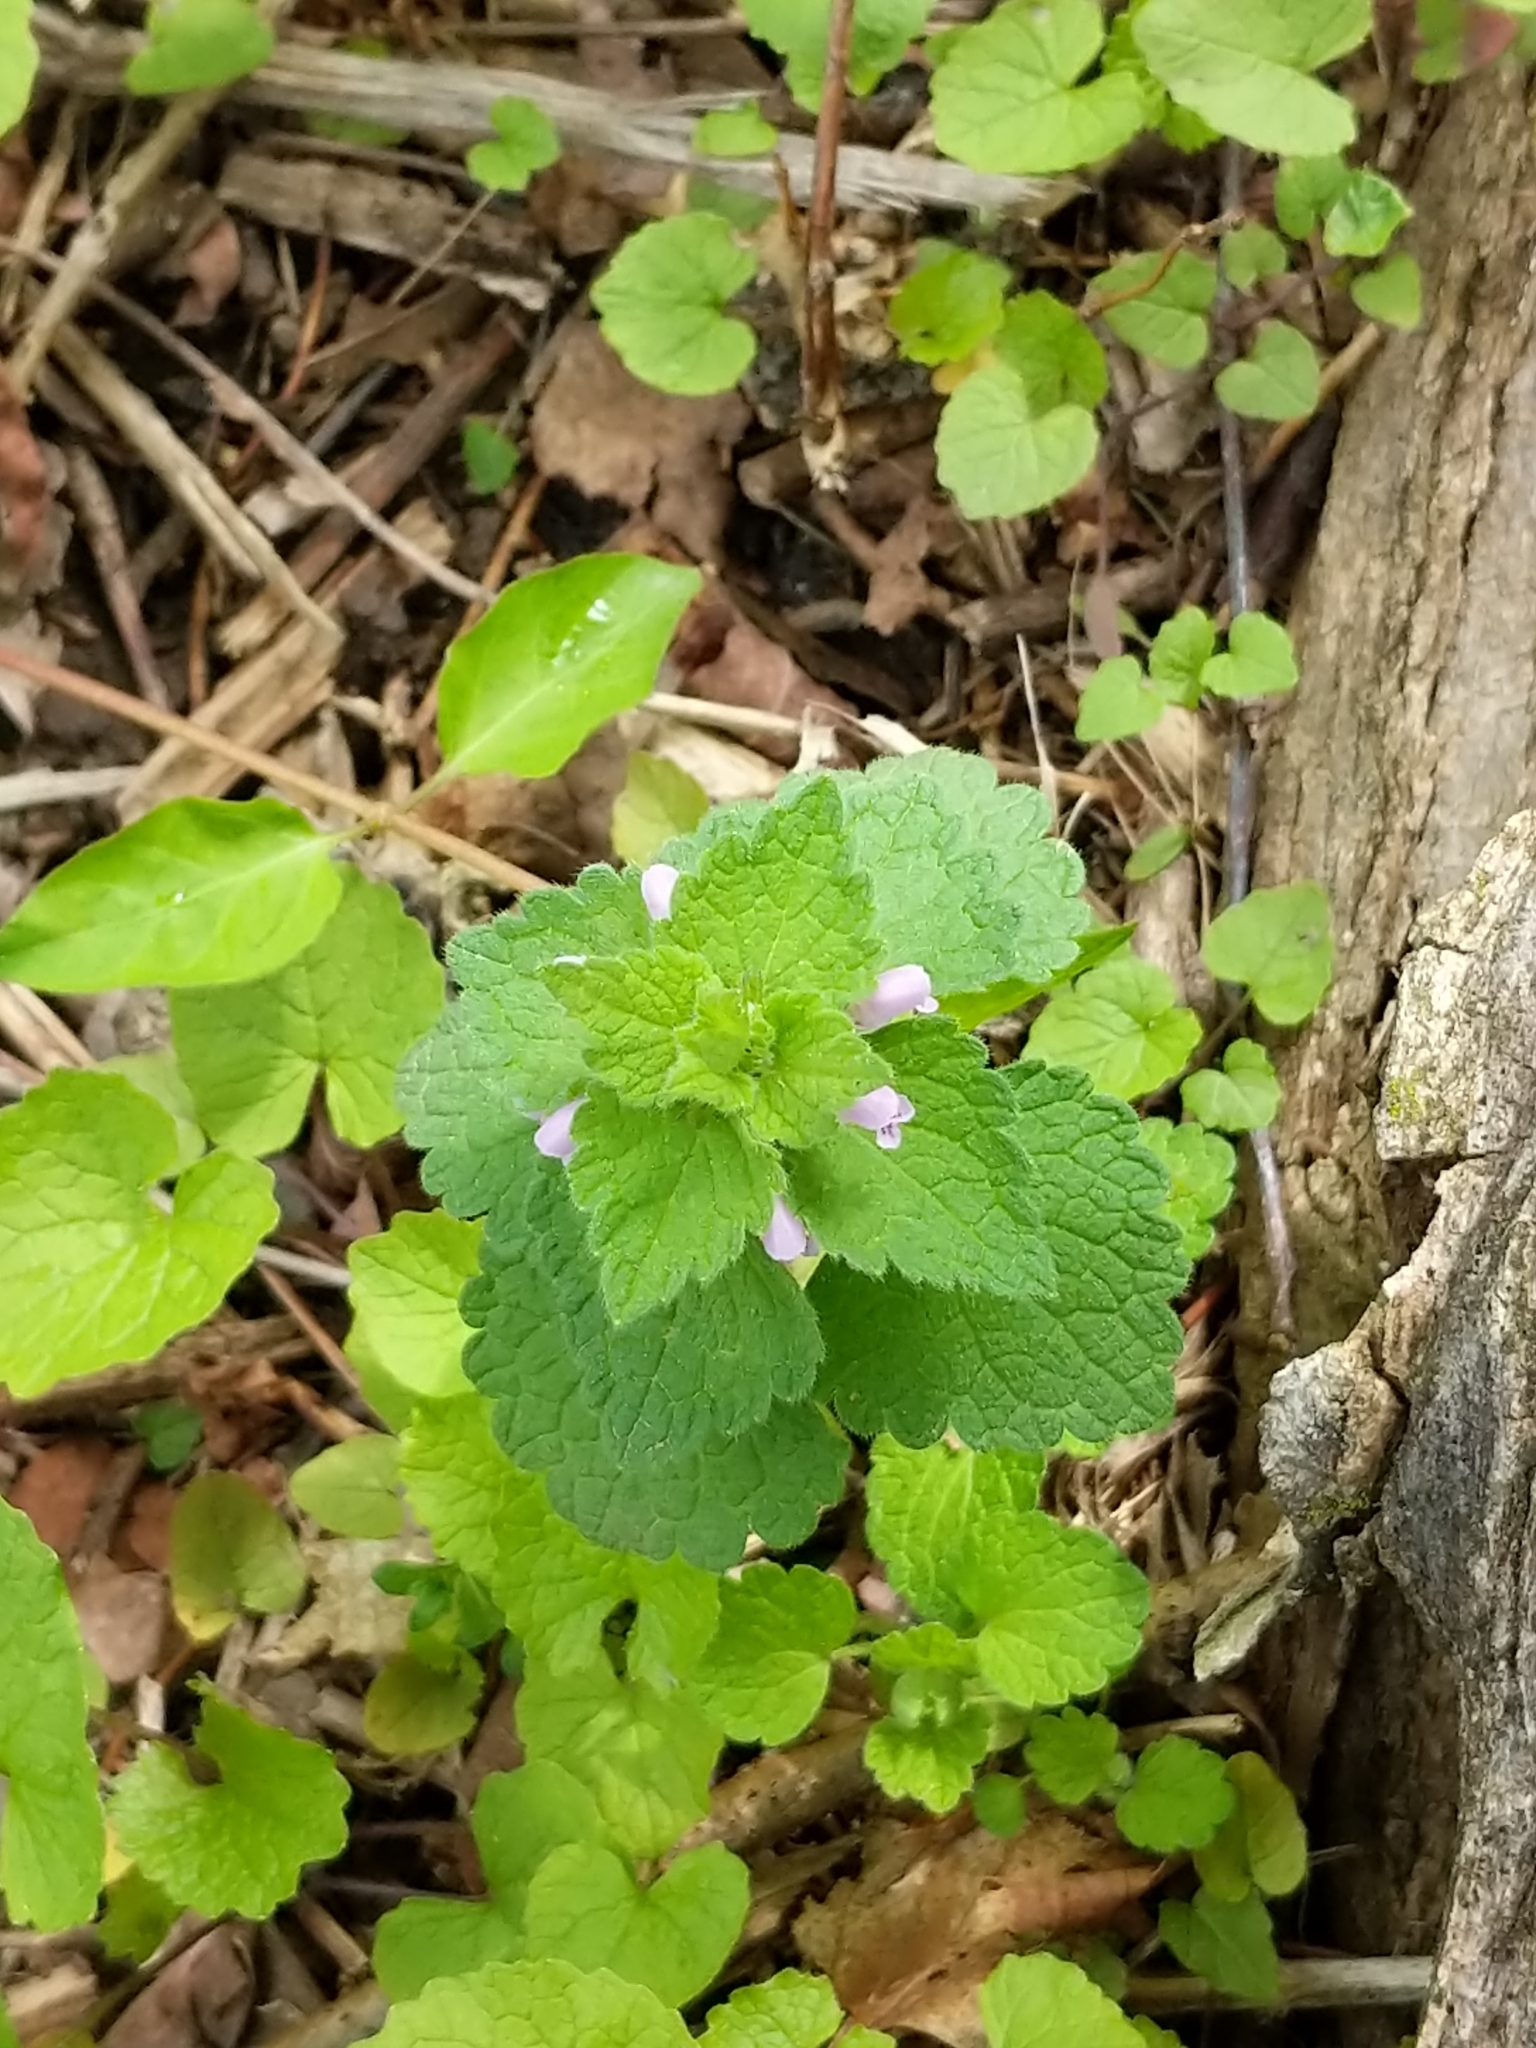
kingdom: Plantae
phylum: Tracheophyta
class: Magnoliopsida
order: Lamiales
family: Lamiaceae
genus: Lamium
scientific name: Lamium purpureum
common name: Red dead-nettle
